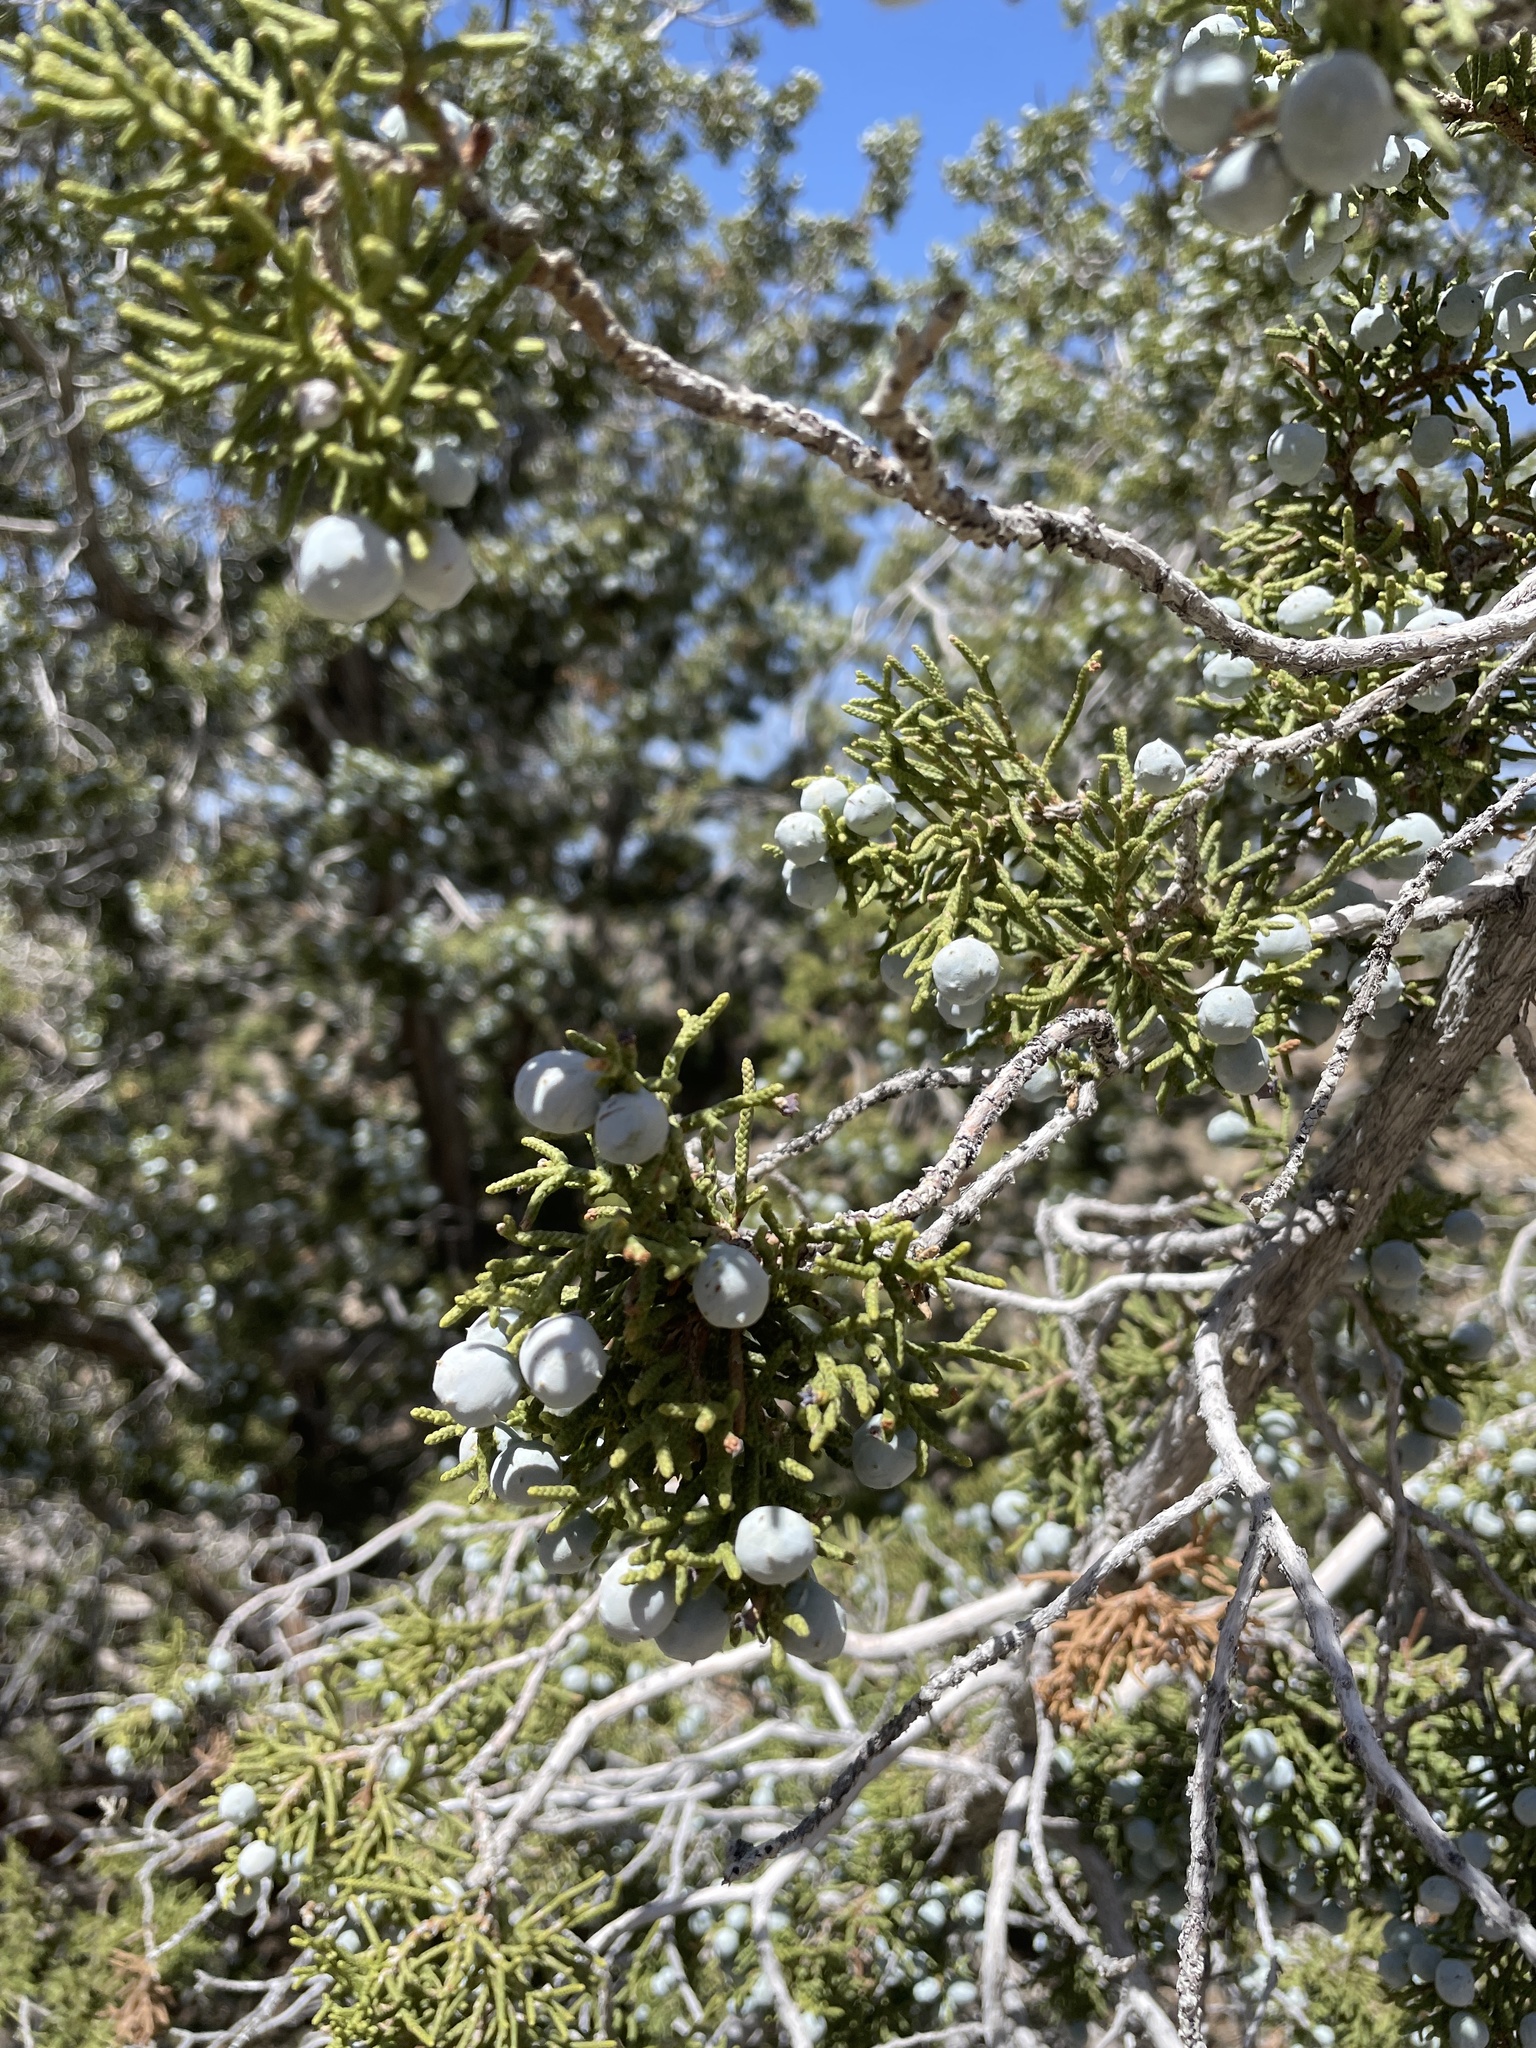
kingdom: Plantae
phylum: Tracheophyta
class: Pinopsida
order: Pinales
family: Cupressaceae
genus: Juniperus
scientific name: Juniperus californica
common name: California juniper
